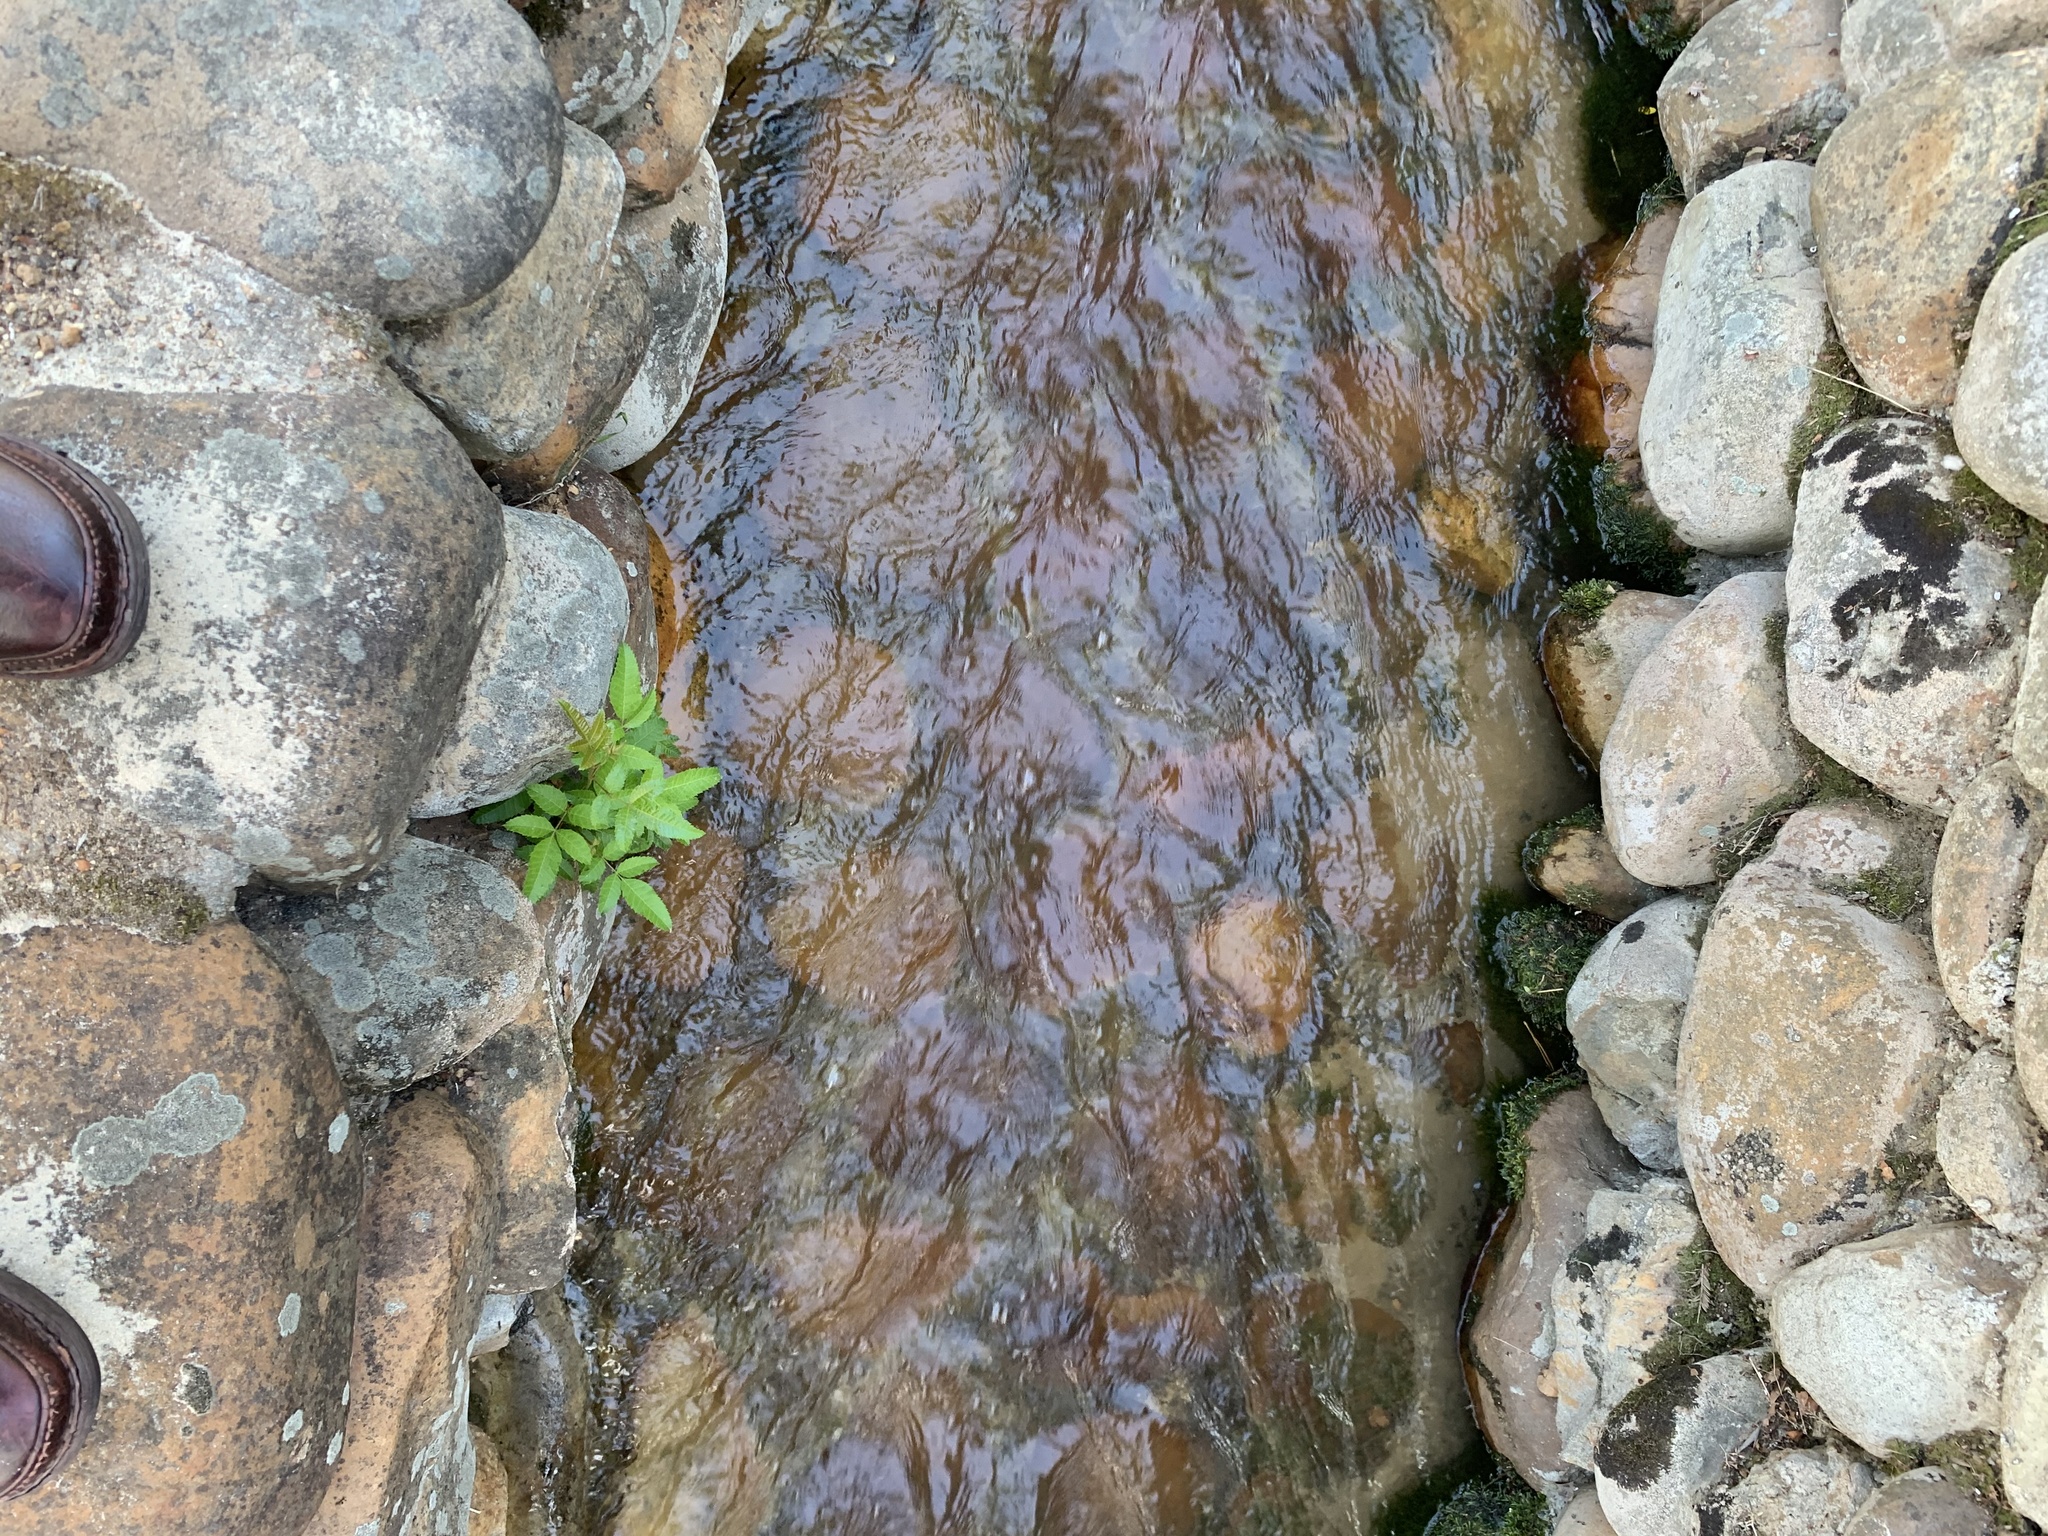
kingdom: Plantae
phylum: Tracheophyta
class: Magnoliopsida
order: Sapindales
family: Anacardiaceae
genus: Schinus
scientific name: Schinus terebinthifolia
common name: Brazilian peppertree
